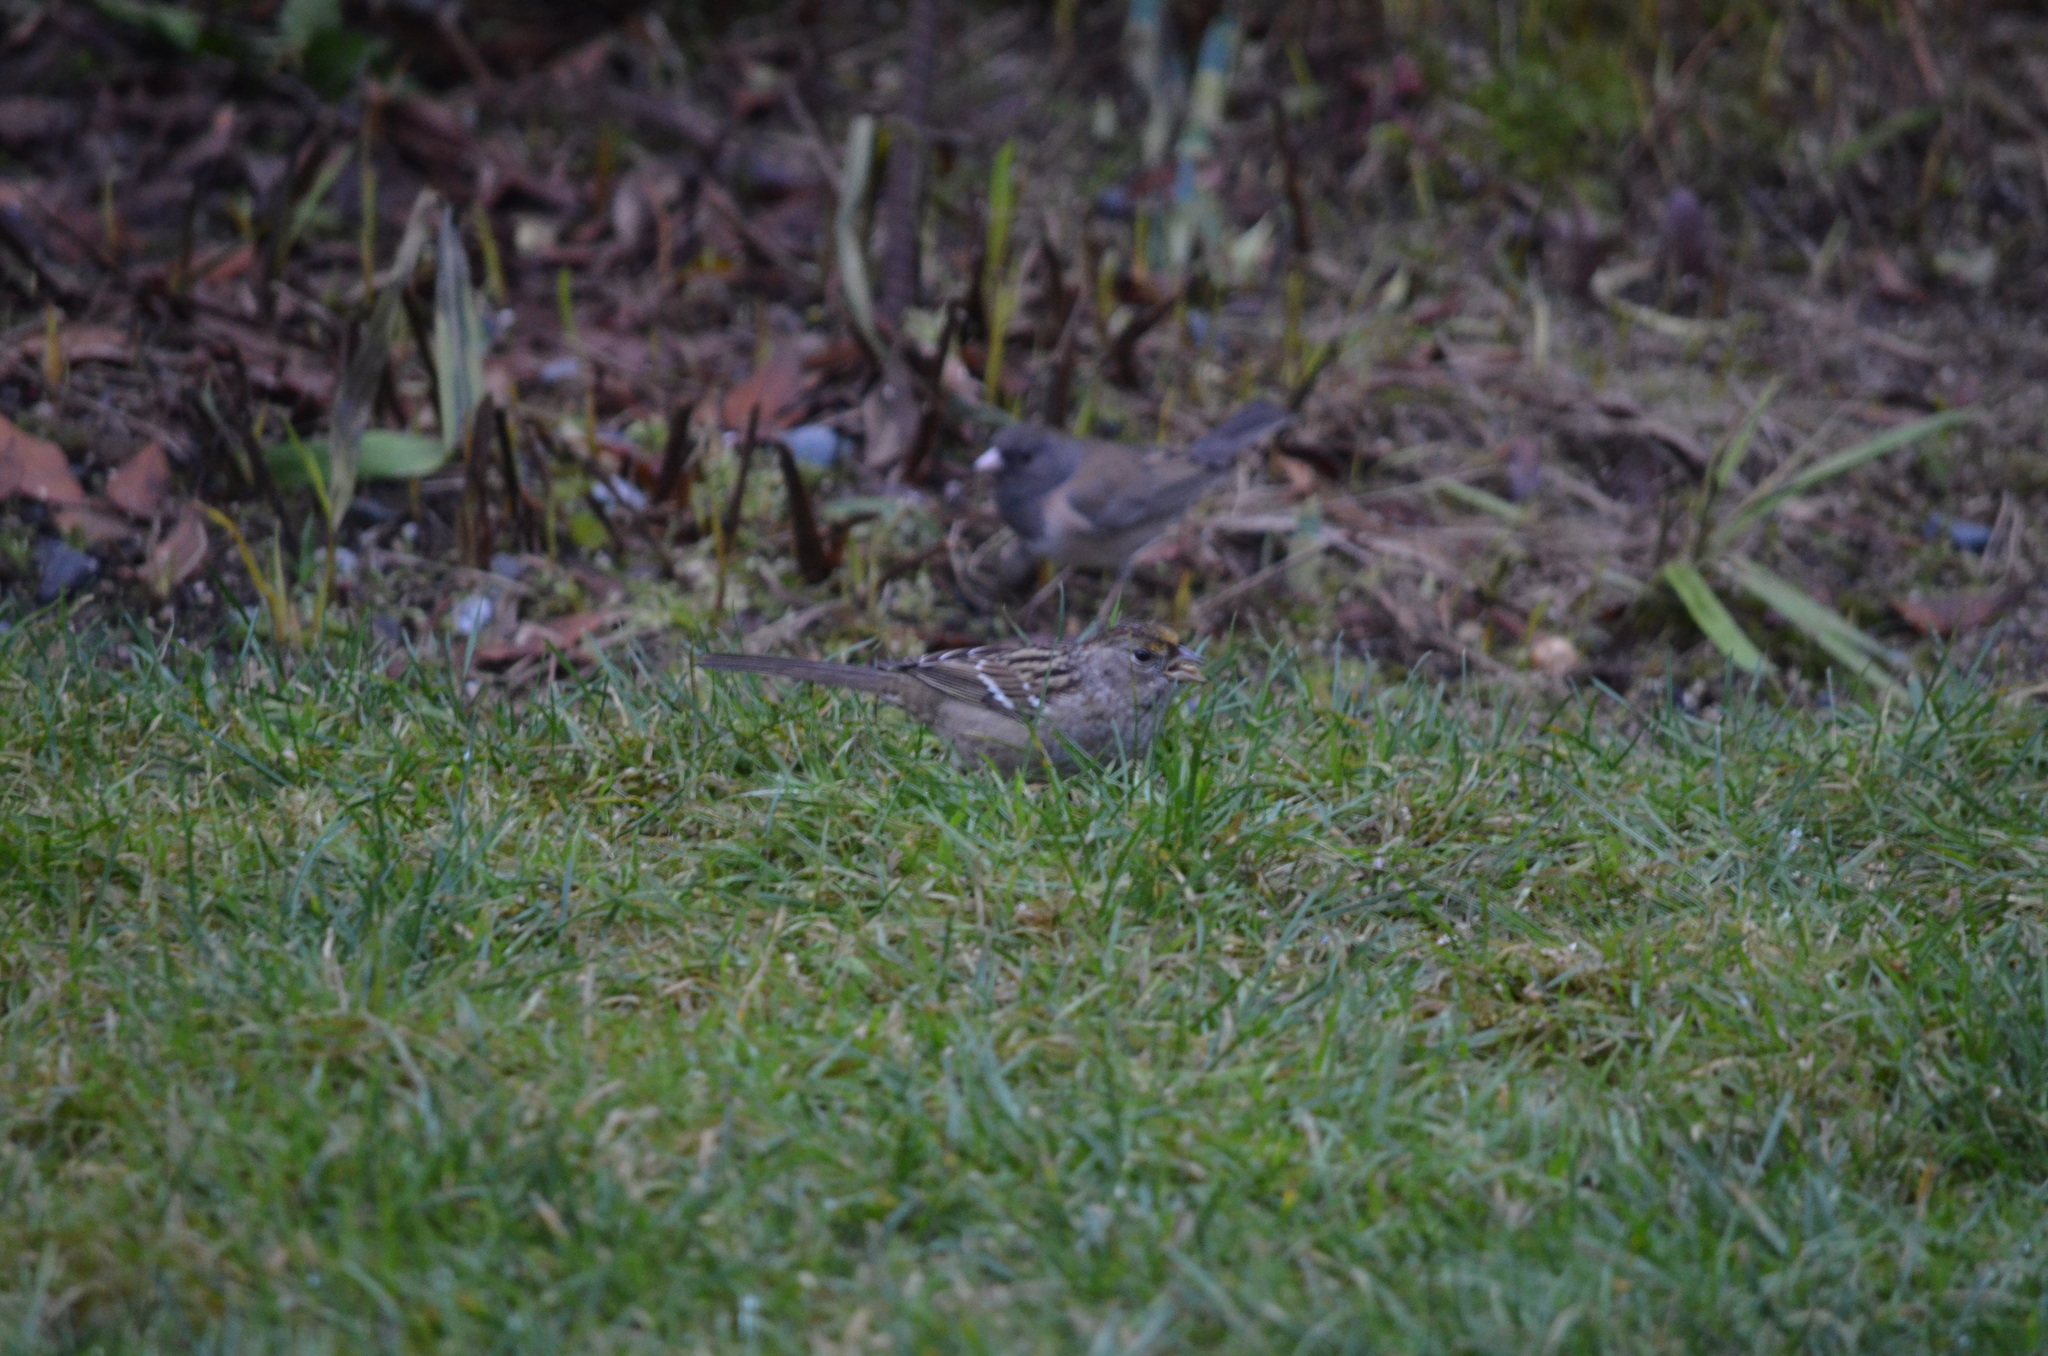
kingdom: Animalia
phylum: Chordata
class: Aves
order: Passeriformes
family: Passerellidae
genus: Zonotrichia
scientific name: Zonotrichia atricapilla
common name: Golden-crowned sparrow
